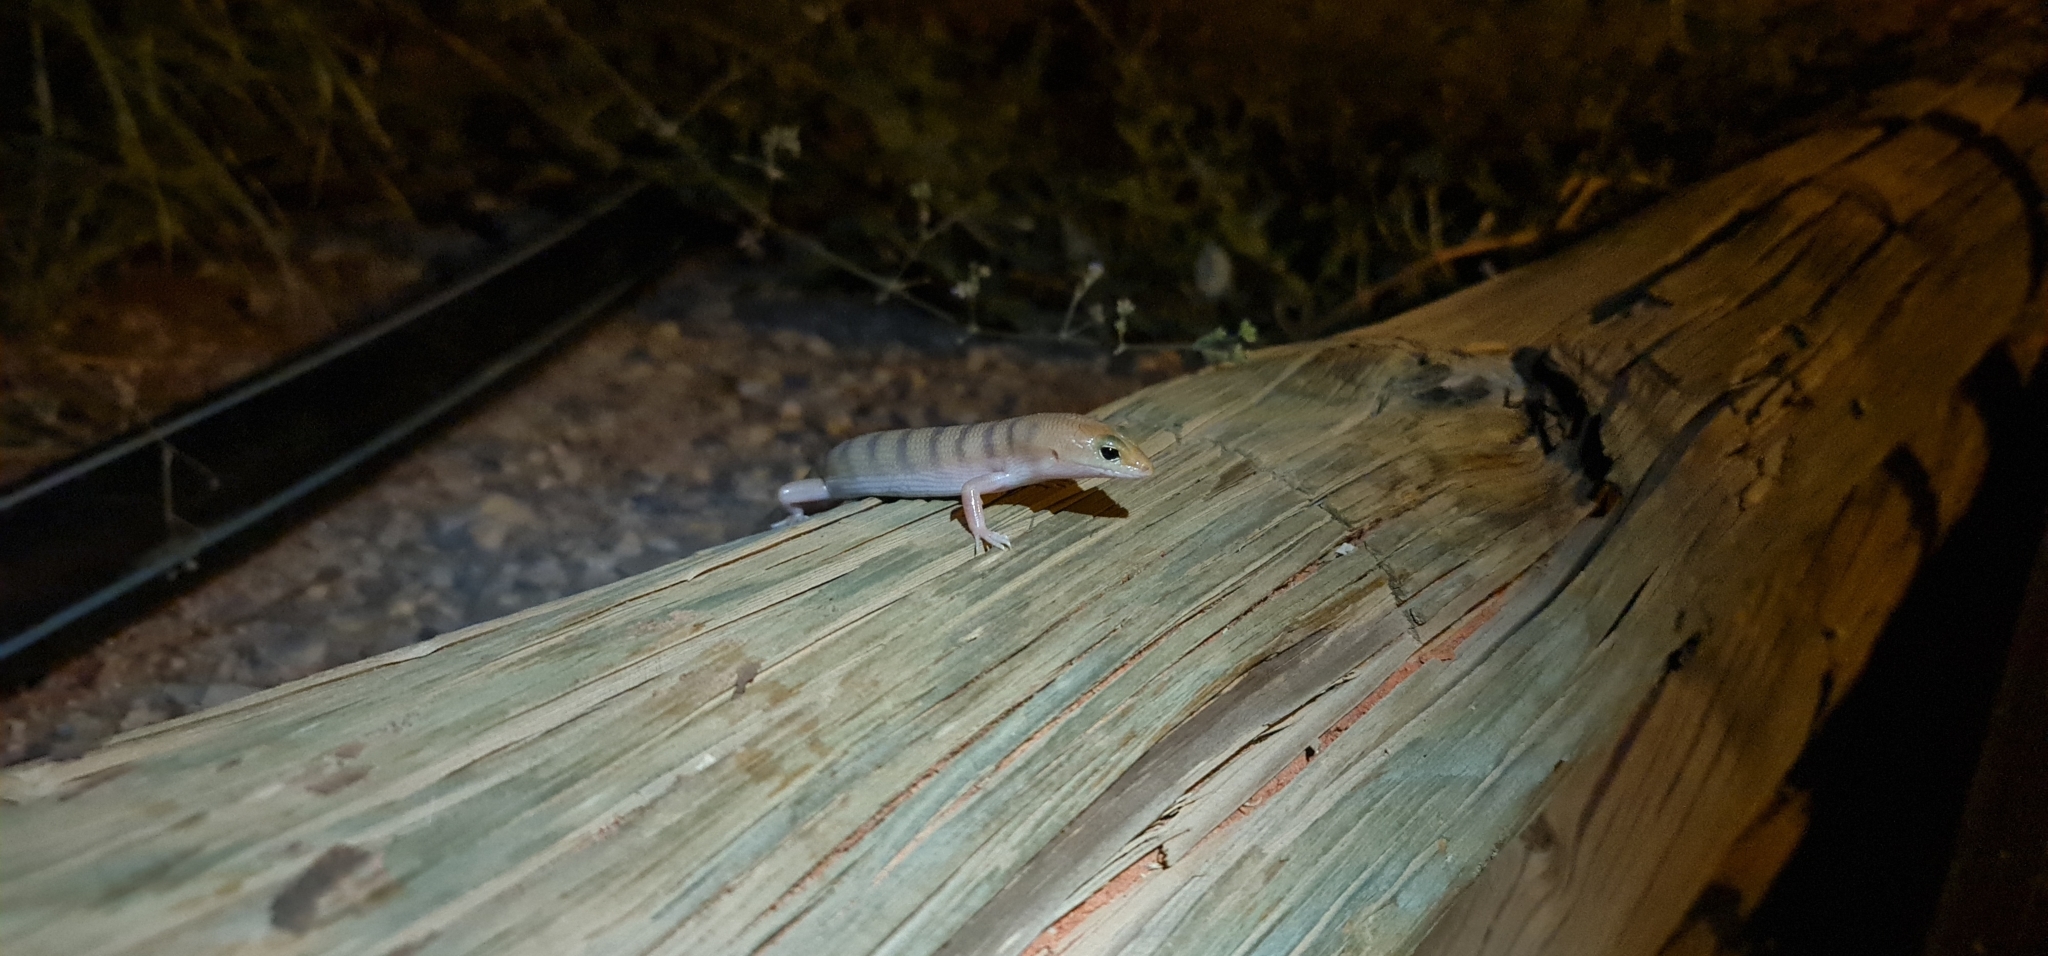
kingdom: Animalia
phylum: Chordata
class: Squamata
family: Scincidae
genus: Eremiascincus
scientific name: Eremiascincus richardsonii
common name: Broad banded sand swimmer
